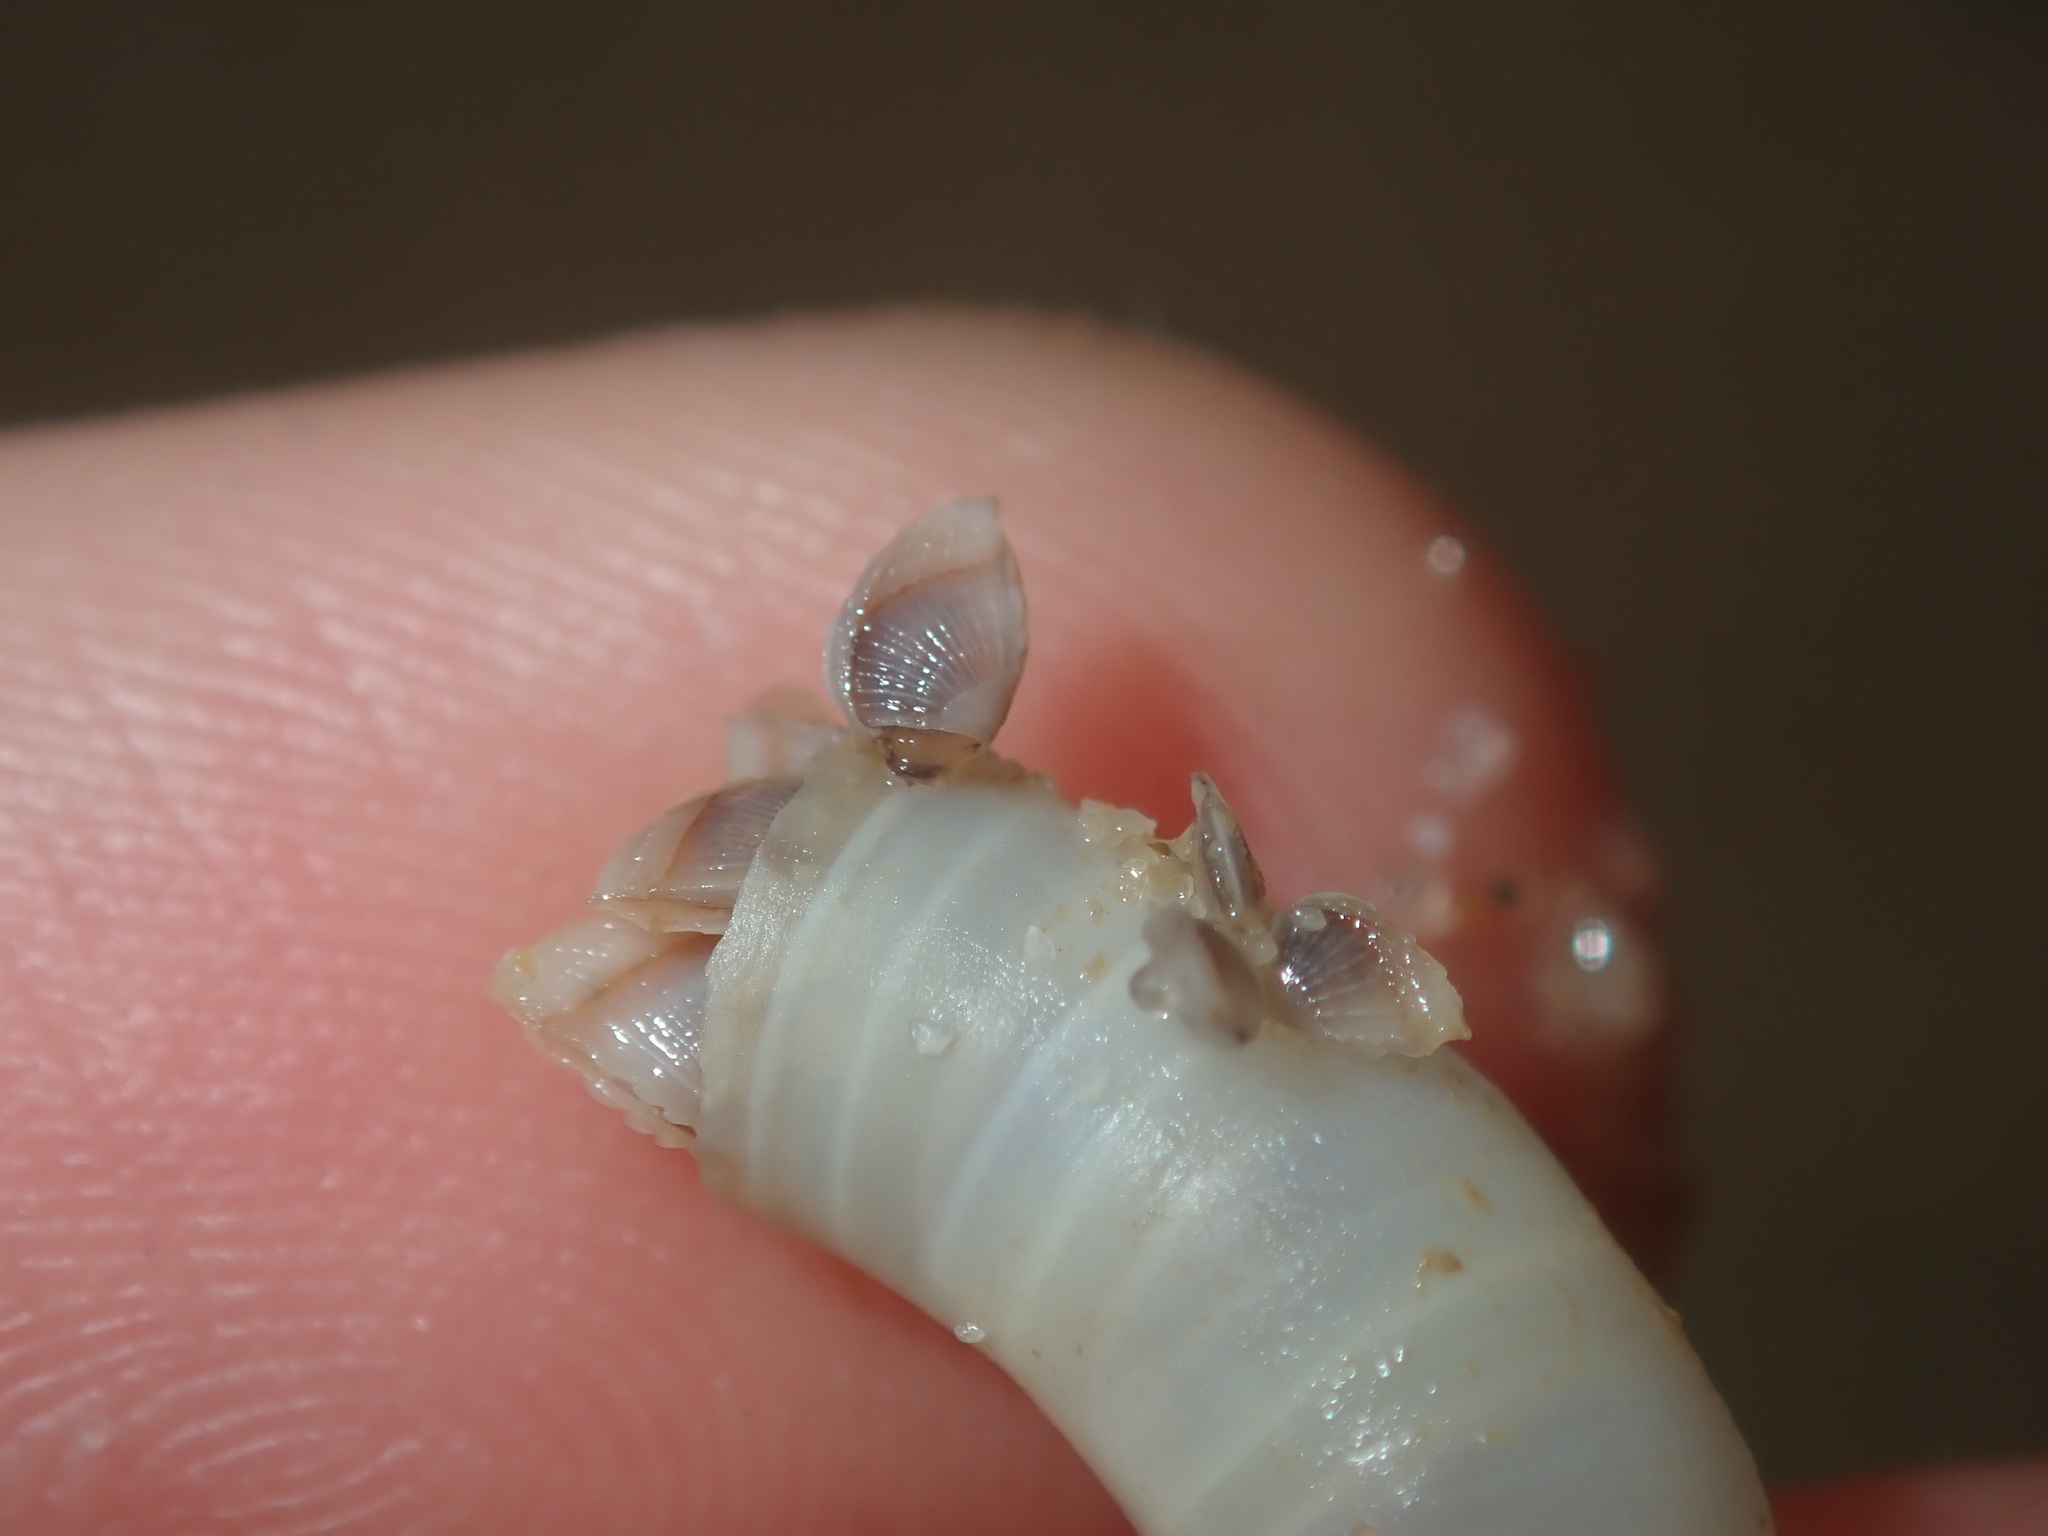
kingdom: Animalia
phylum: Arthropoda
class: Maxillopoda
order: Pedunculata
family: Lepadidae
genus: Lepas
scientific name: Lepas pectinata
